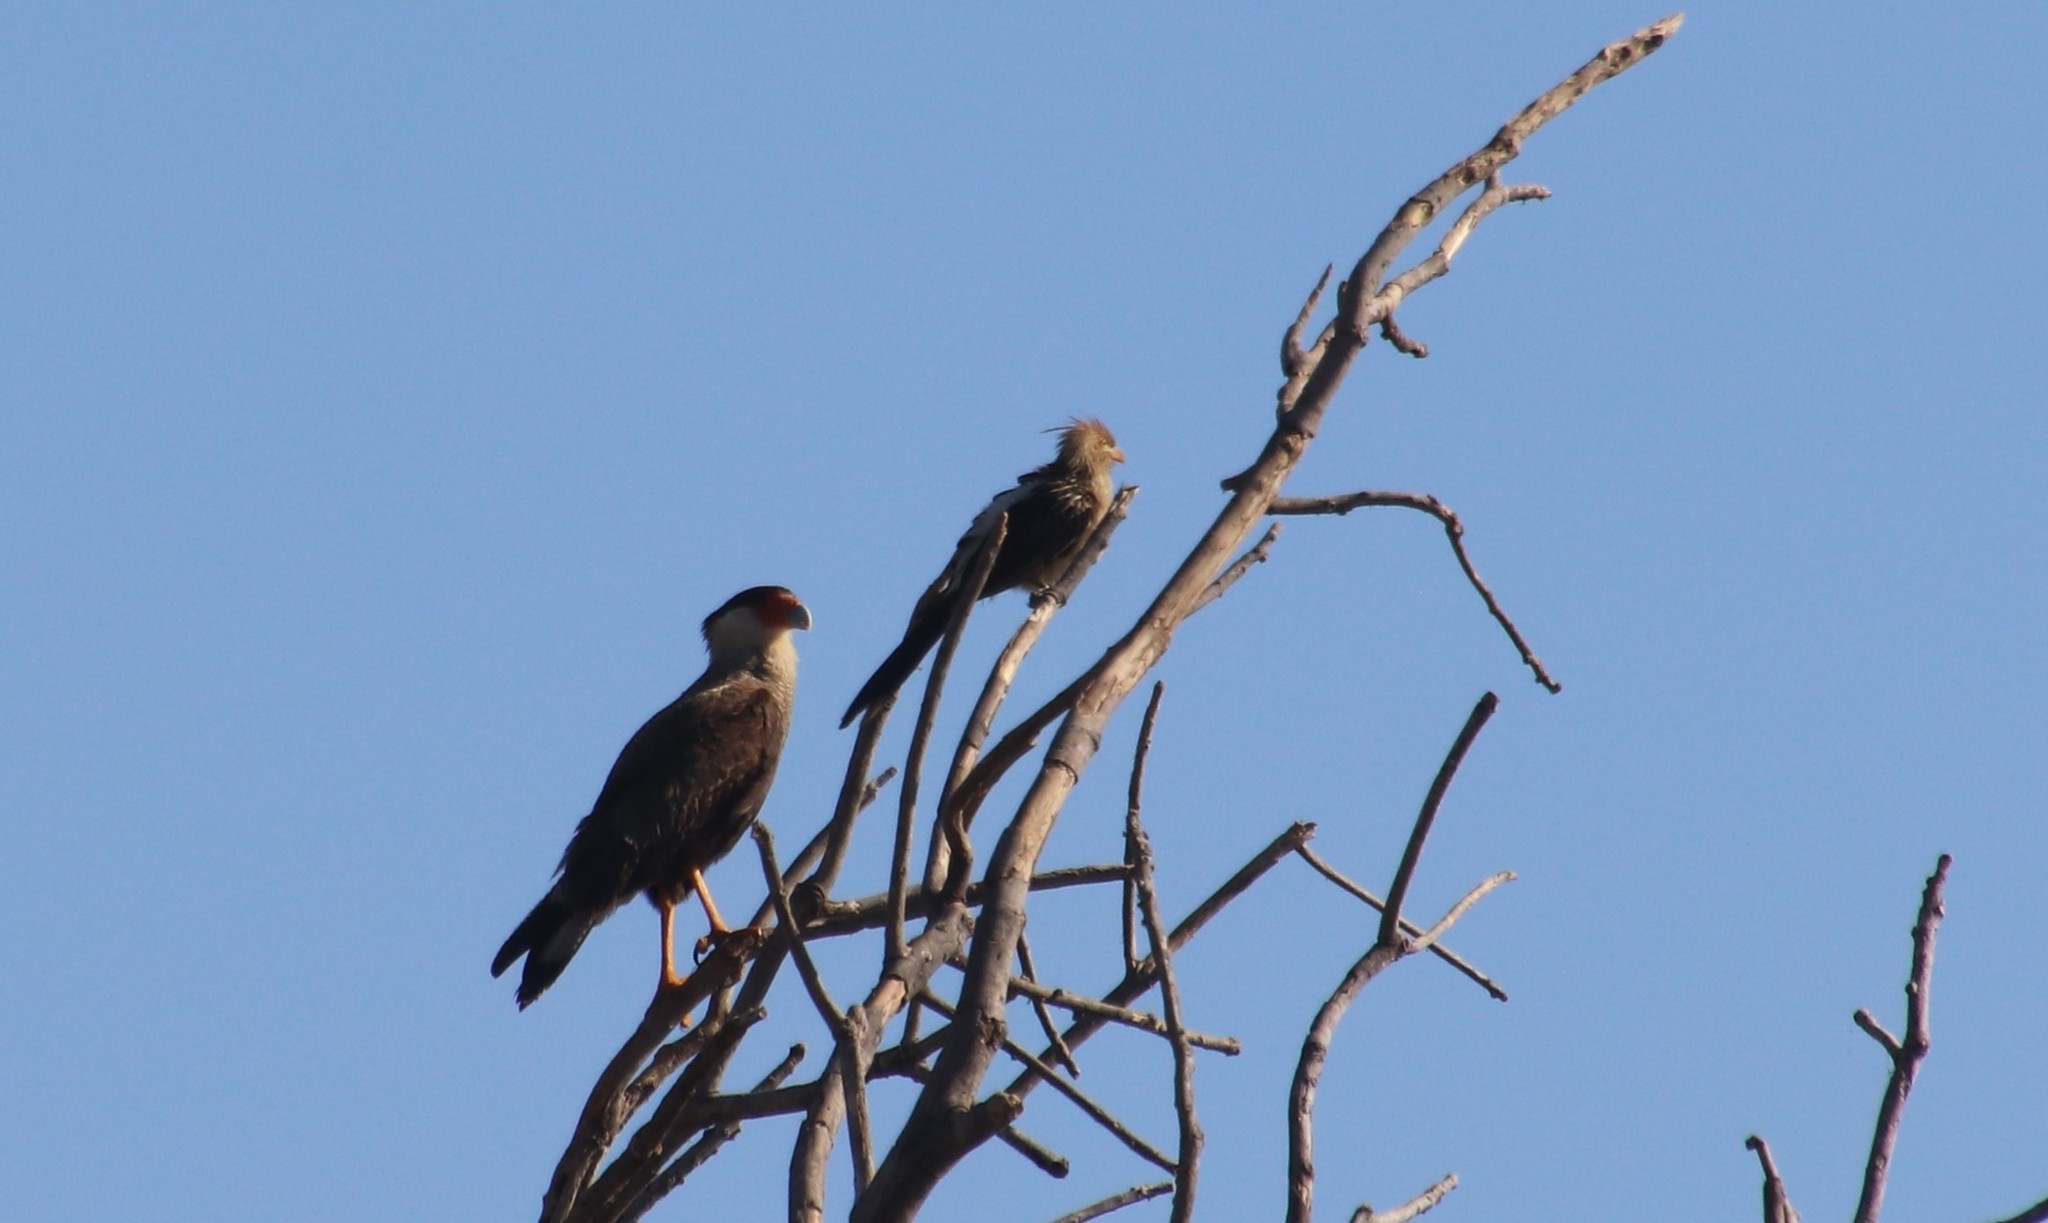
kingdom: Animalia
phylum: Chordata
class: Aves
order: Cuculiformes
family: Cuculidae
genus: Guira
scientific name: Guira guira
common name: Guira cuckoo
